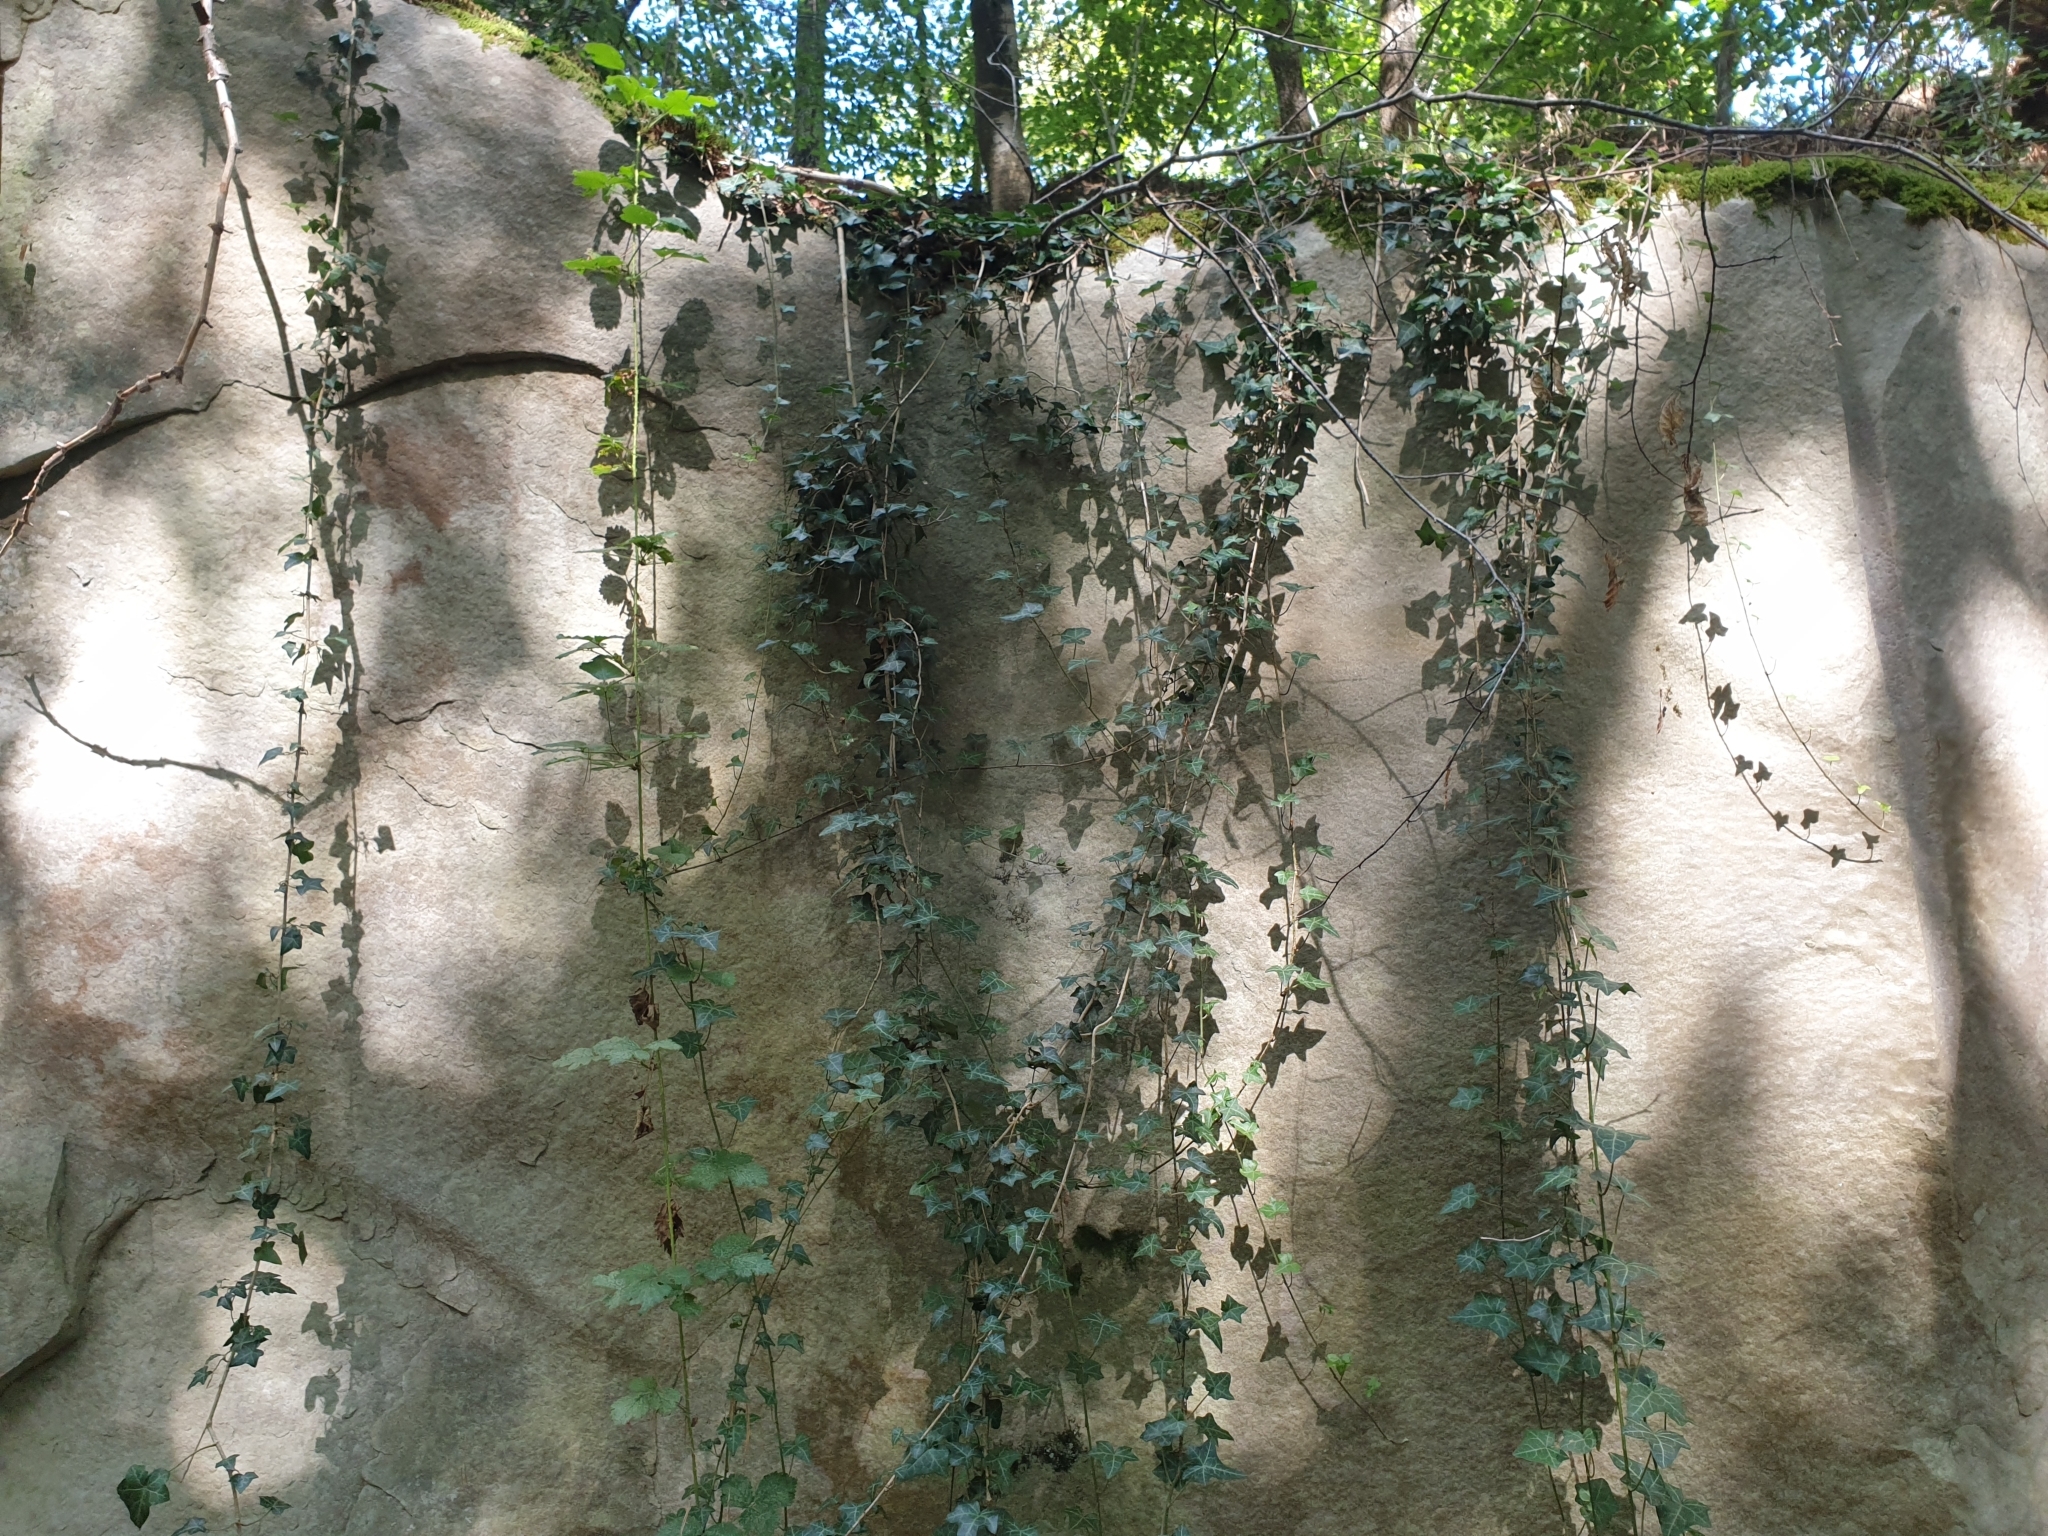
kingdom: Plantae
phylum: Tracheophyta
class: Magnoliopsida
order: Apiales
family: Araliaceae
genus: Hedera
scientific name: Hedera helix
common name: Ivy
